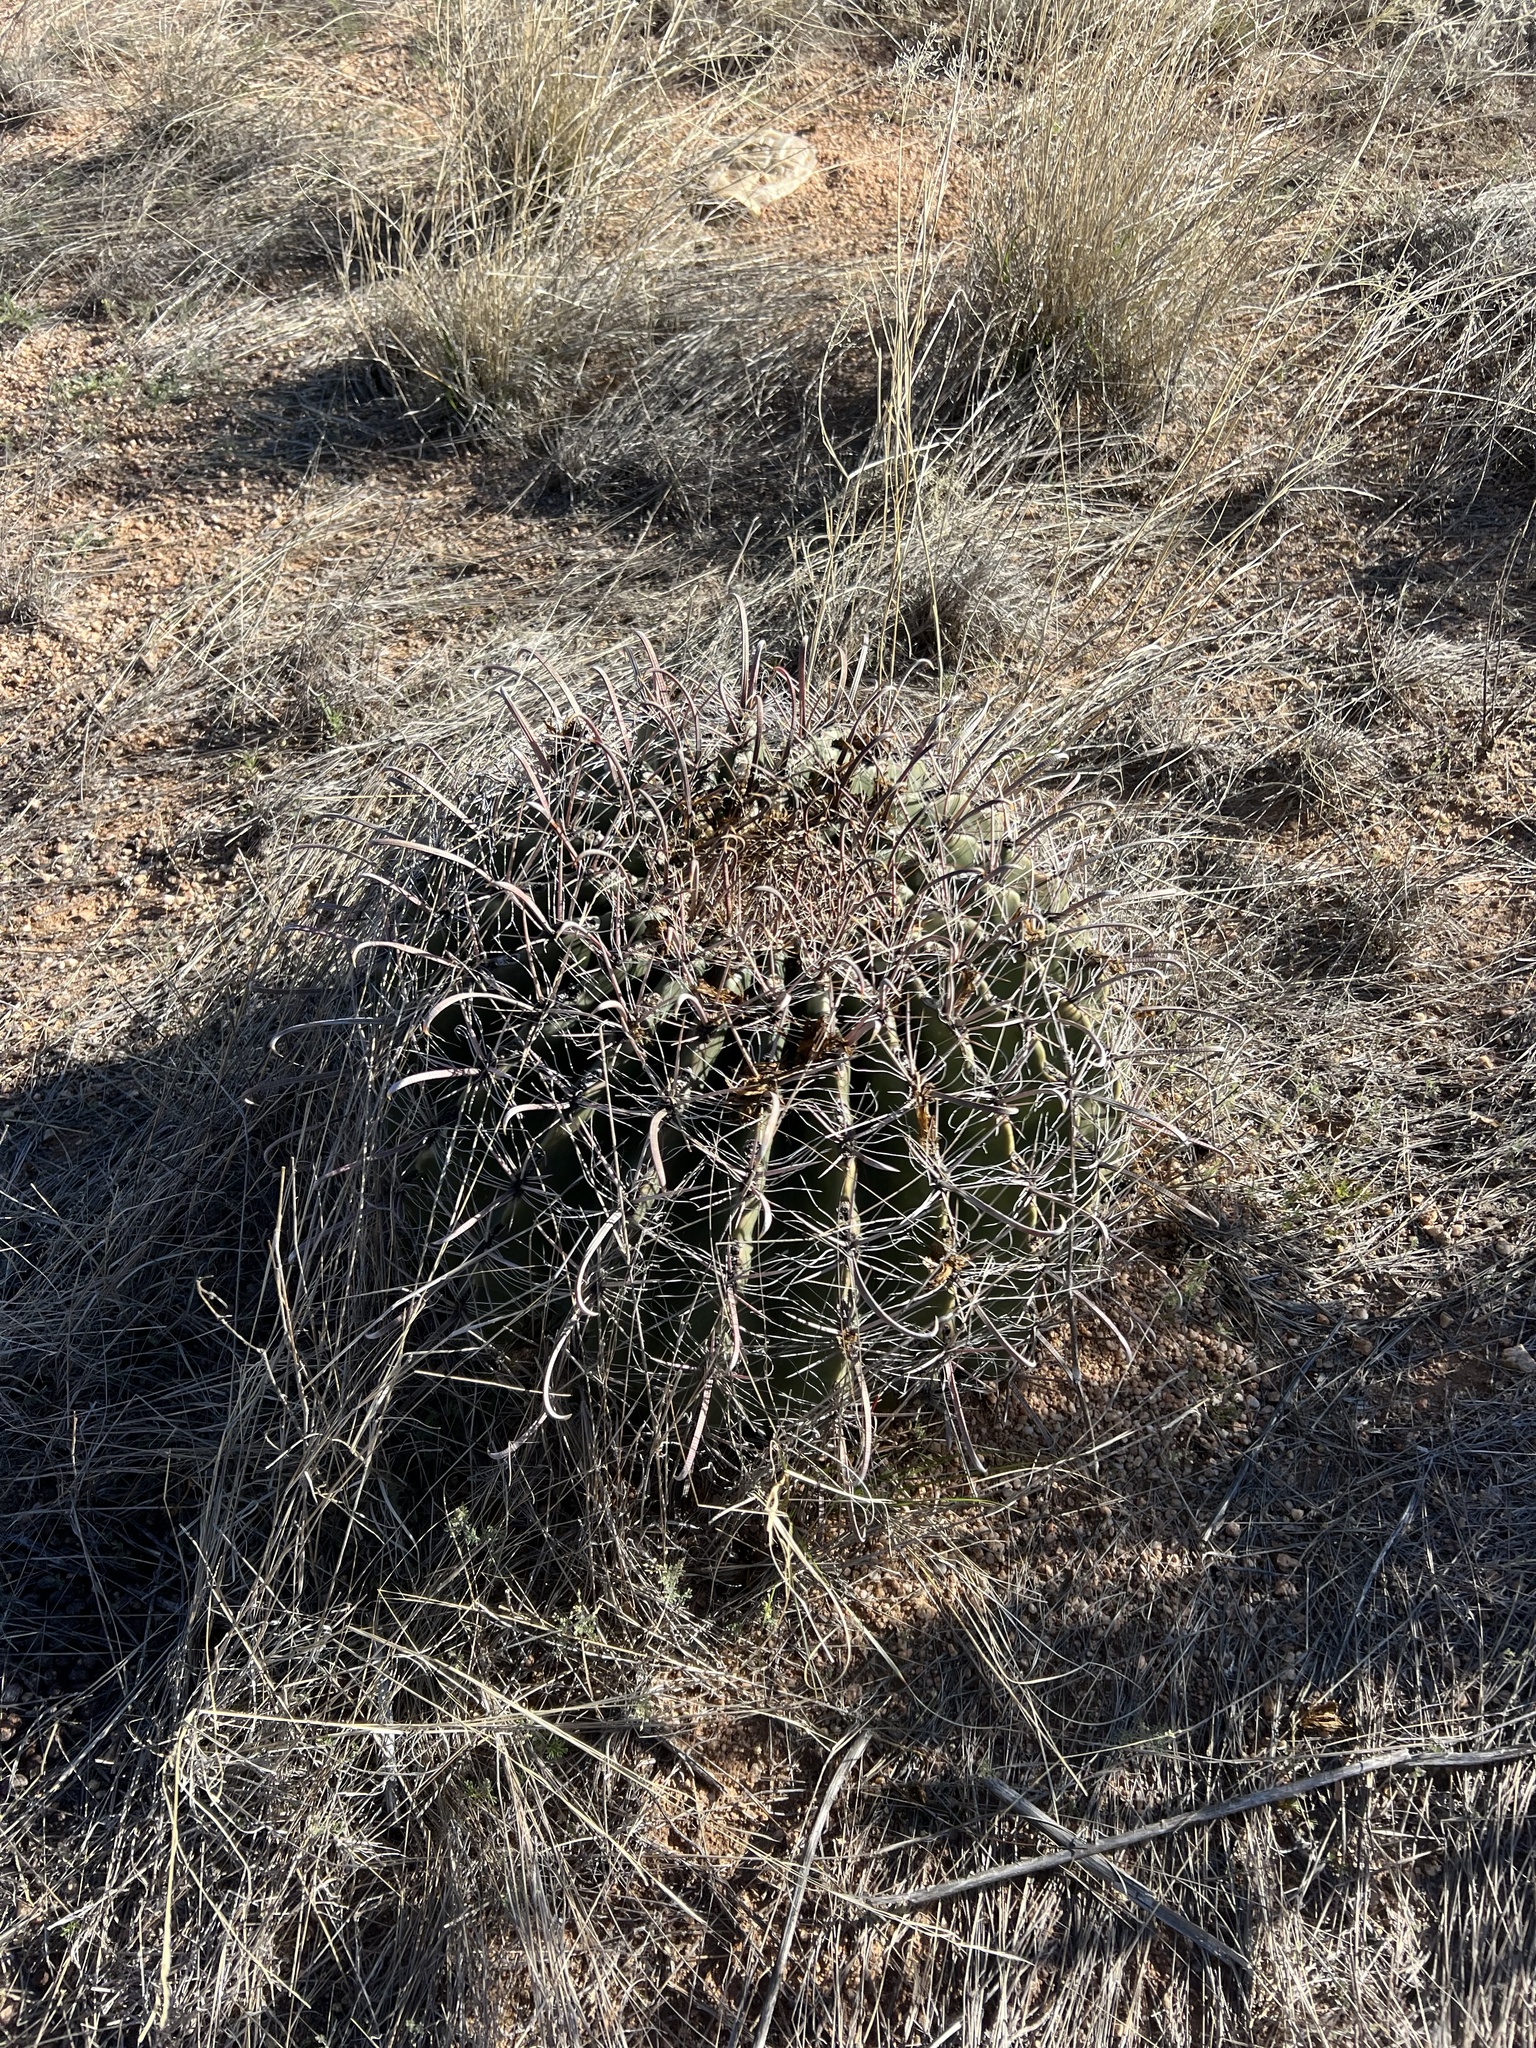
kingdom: Plantae
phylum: Tracheophyta
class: Magnoliopsida
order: Caryophyllales
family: Cactaceae
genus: Ferocactus
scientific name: Ferocactus wislizeni
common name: Candy barrel cactus
